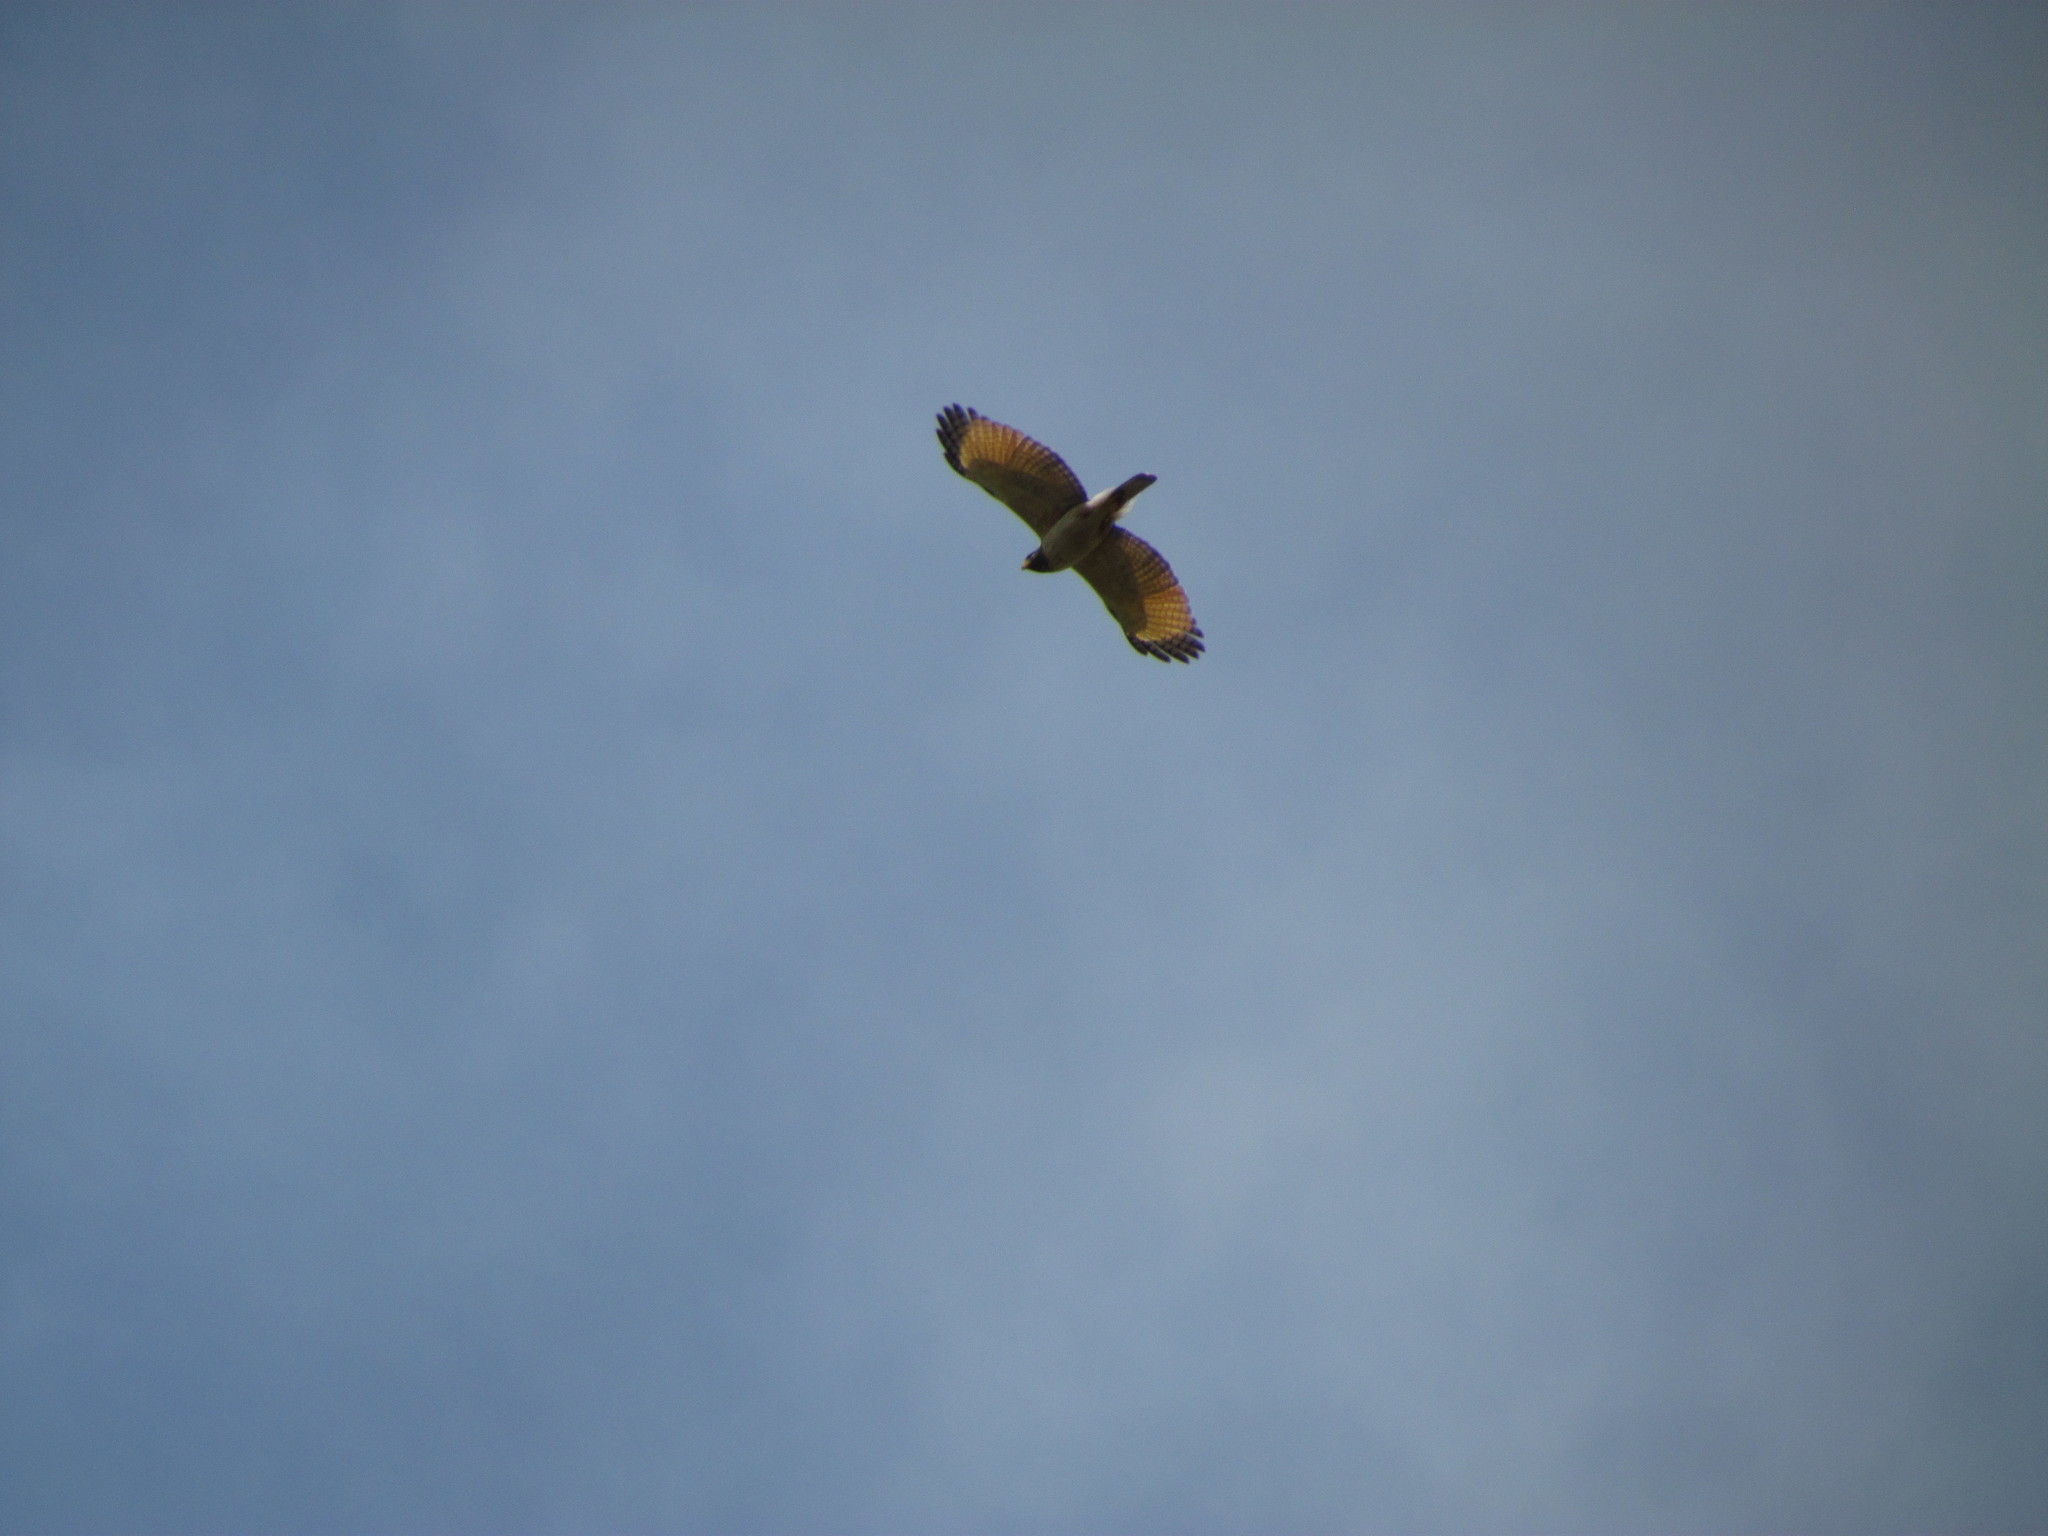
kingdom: Animalia
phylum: Chordata
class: Aves
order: Accipitriformes
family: Accipitridae
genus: Rupornis
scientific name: Rupornis magnirostris
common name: Roadside hawk
